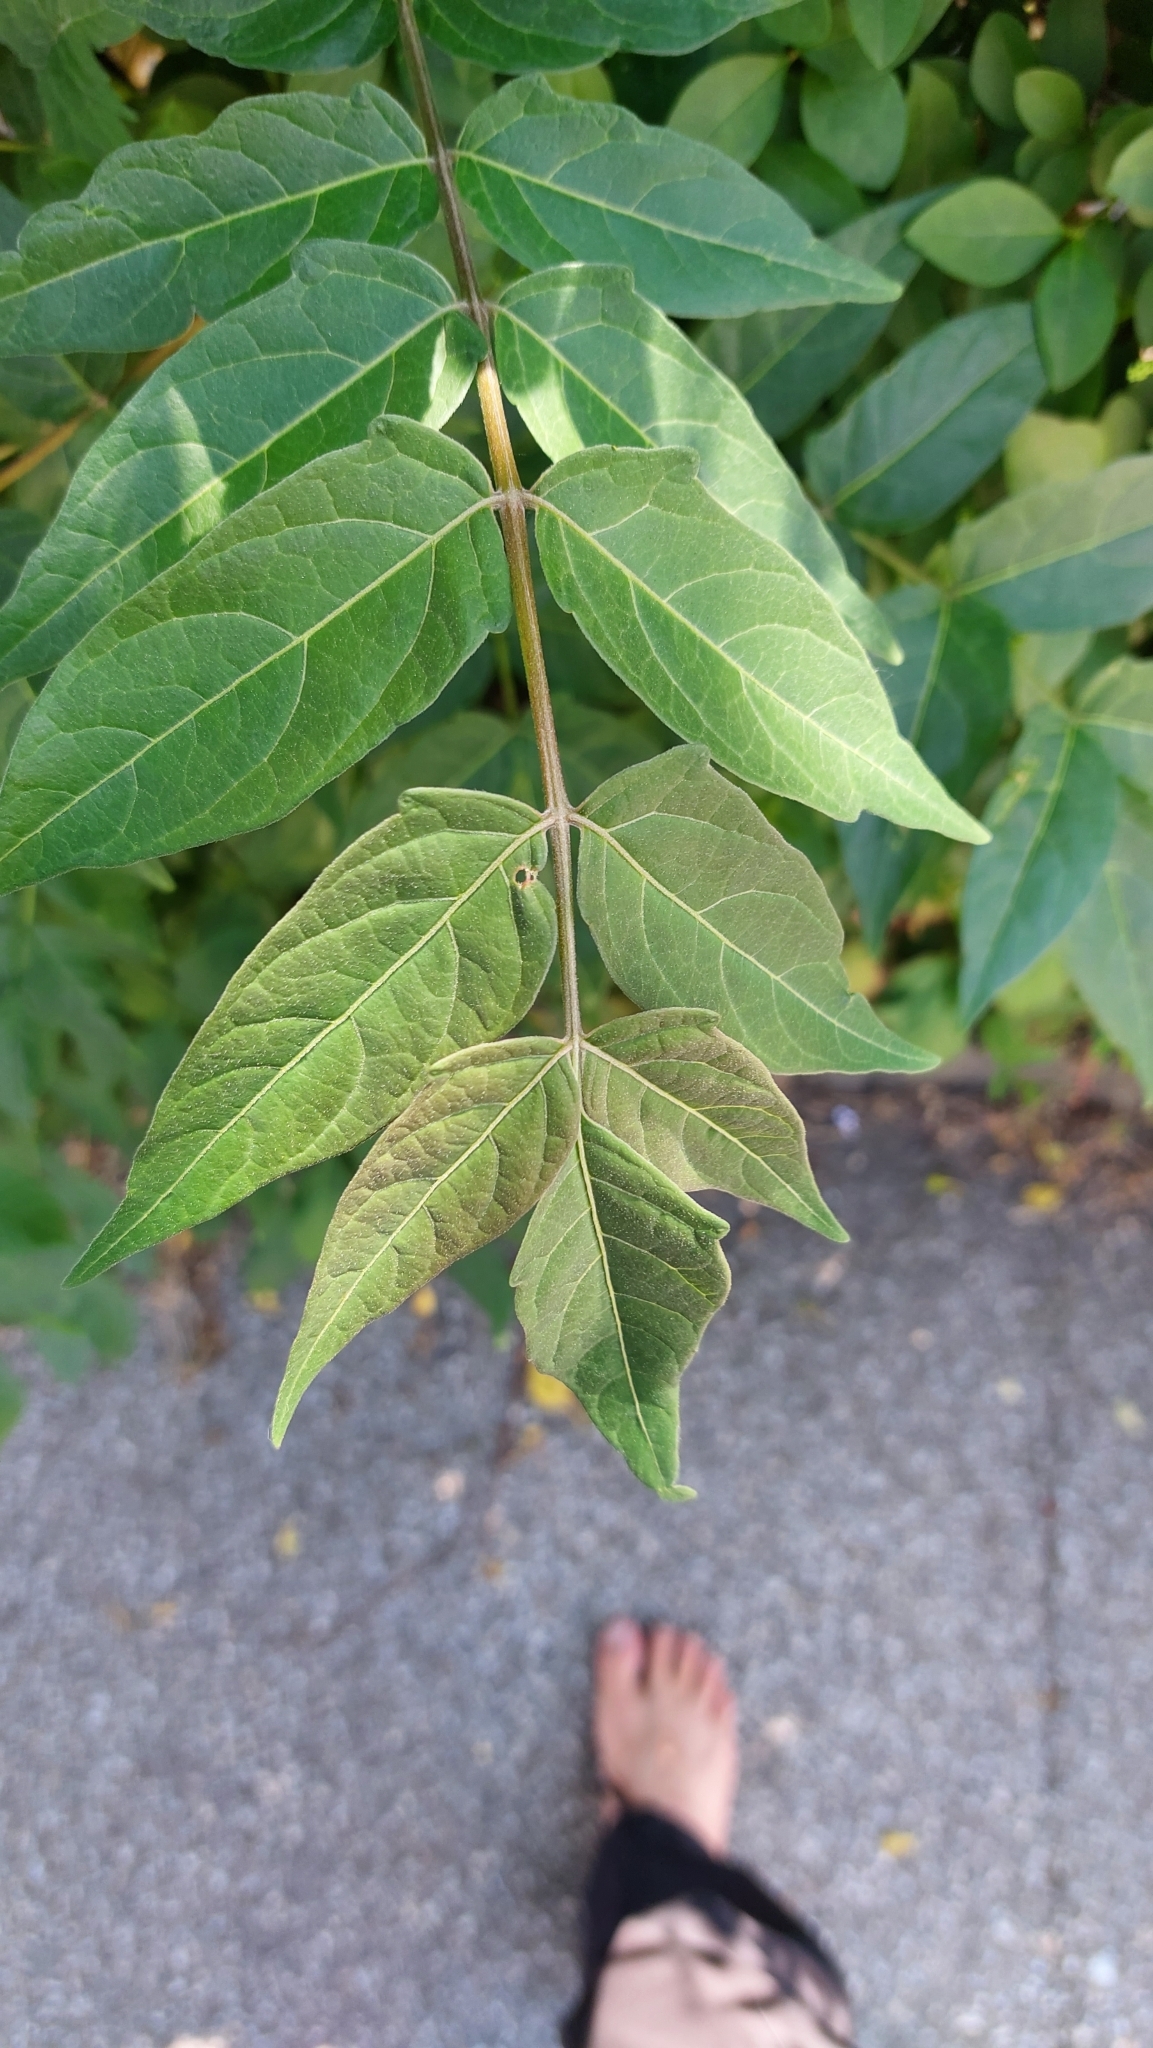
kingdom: Plantae
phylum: Tracheophyta
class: Magnoliopsida
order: Sapindales
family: Simaroubaceae
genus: Ailanthus
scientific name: Ailanthus altissima
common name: Tree-of-heaven
